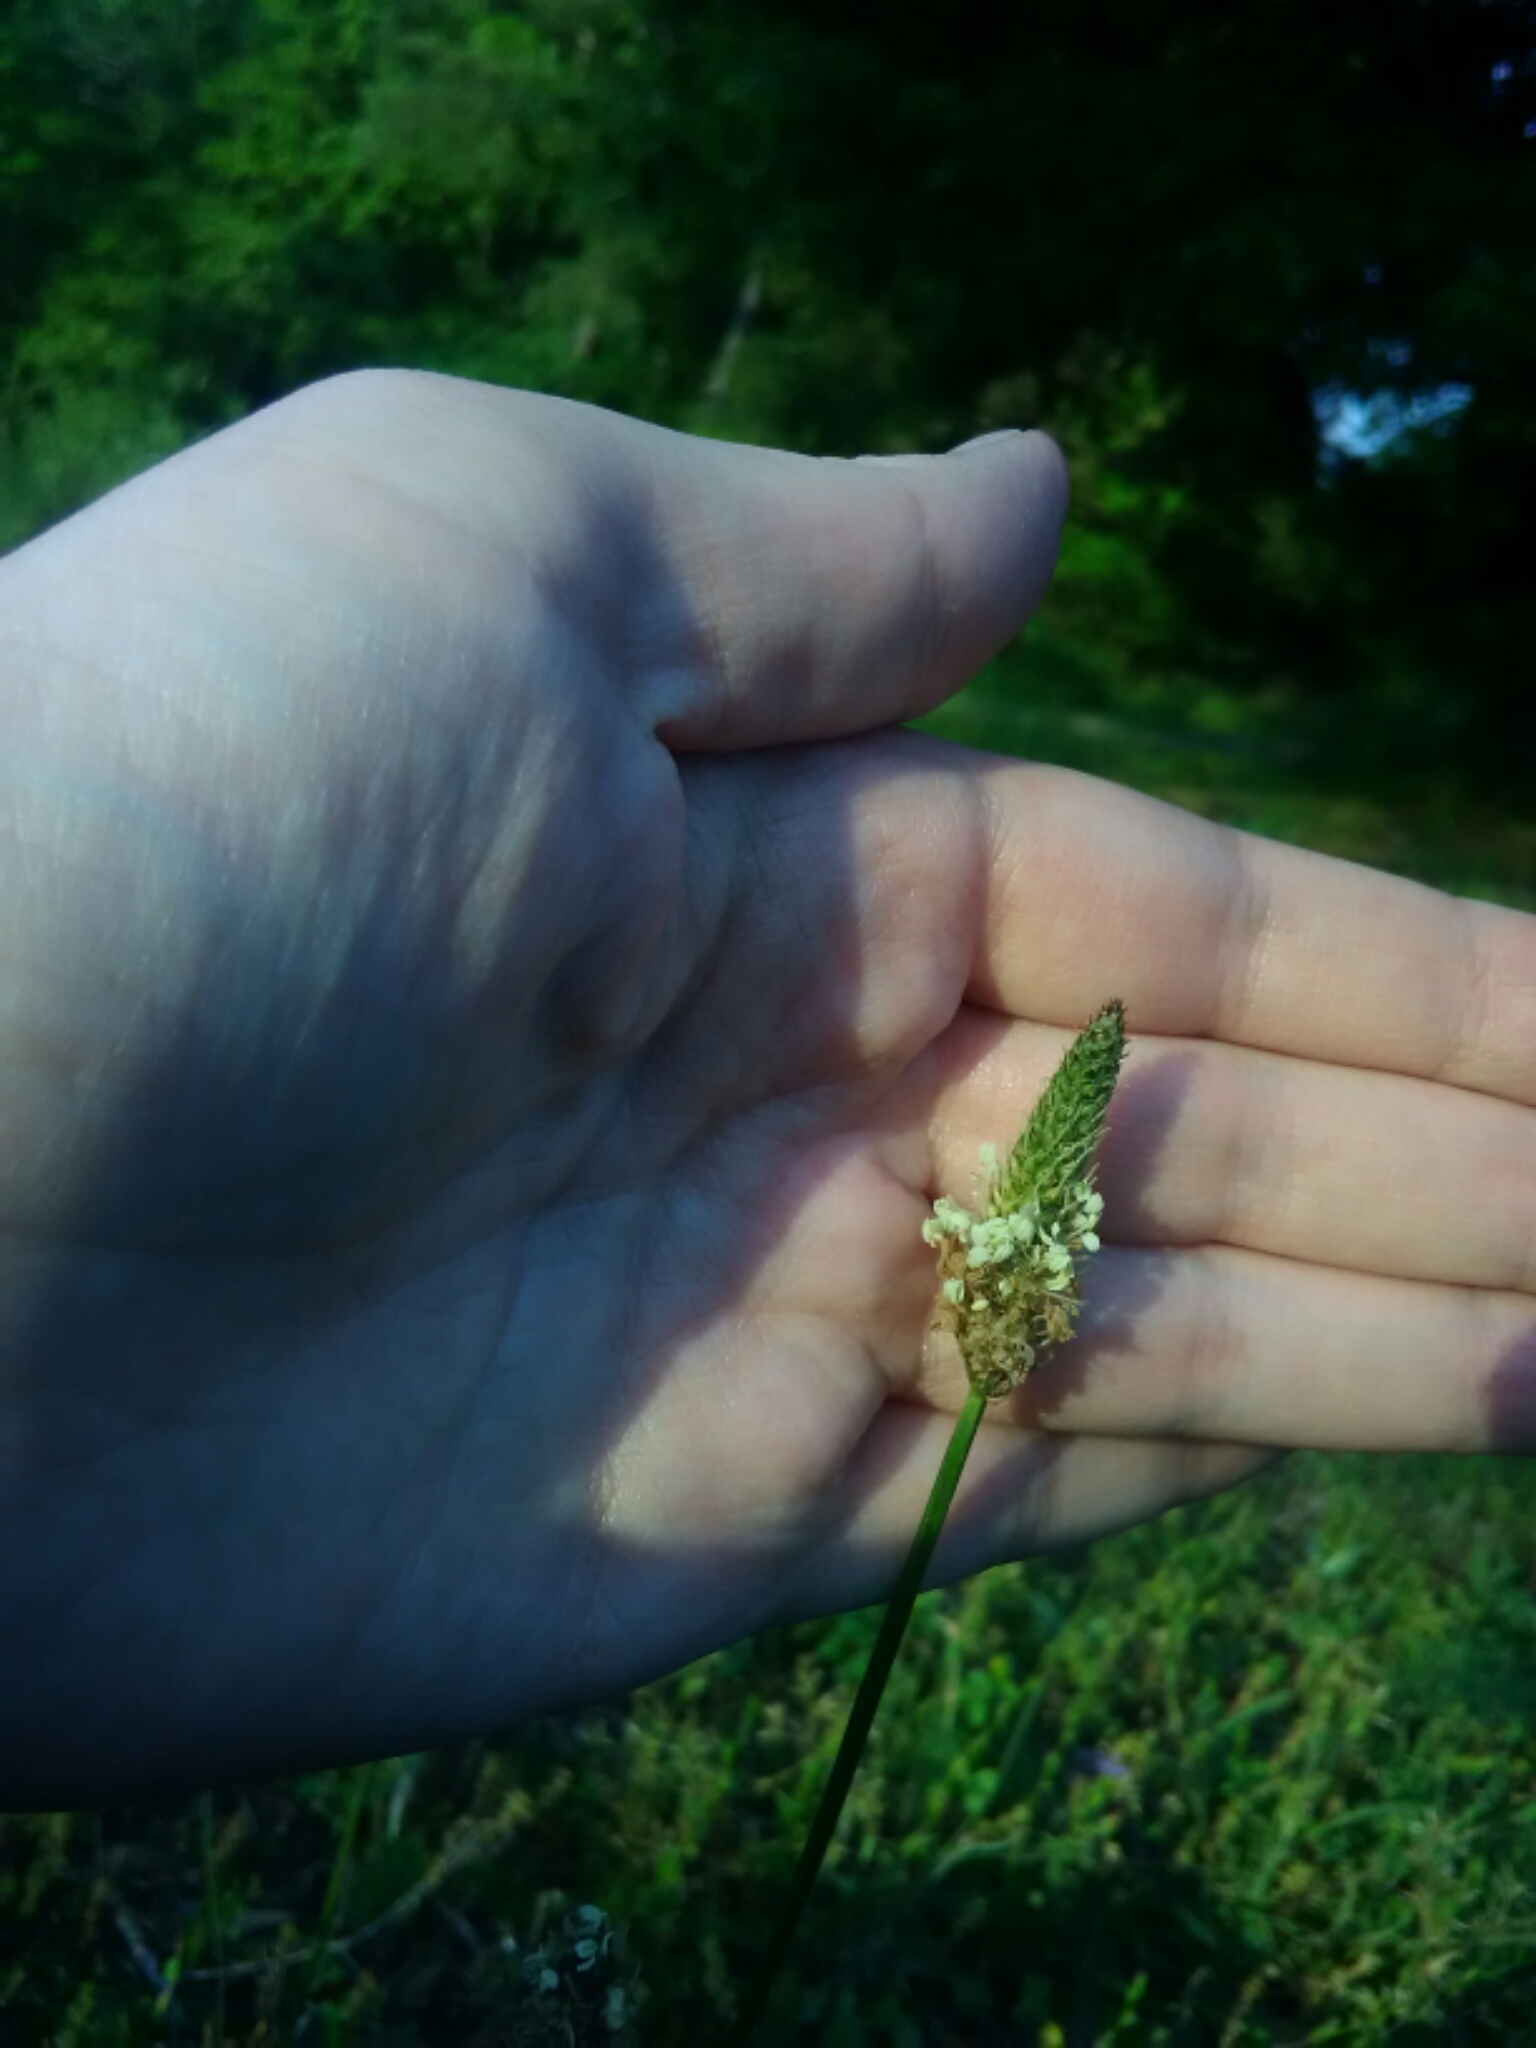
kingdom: Plantae
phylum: Tracheophyta
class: Magnoliopsida
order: Lamiales
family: Plantaginaceae
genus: Plantago
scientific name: Plantago lanceolata
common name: Ribwort plantain
